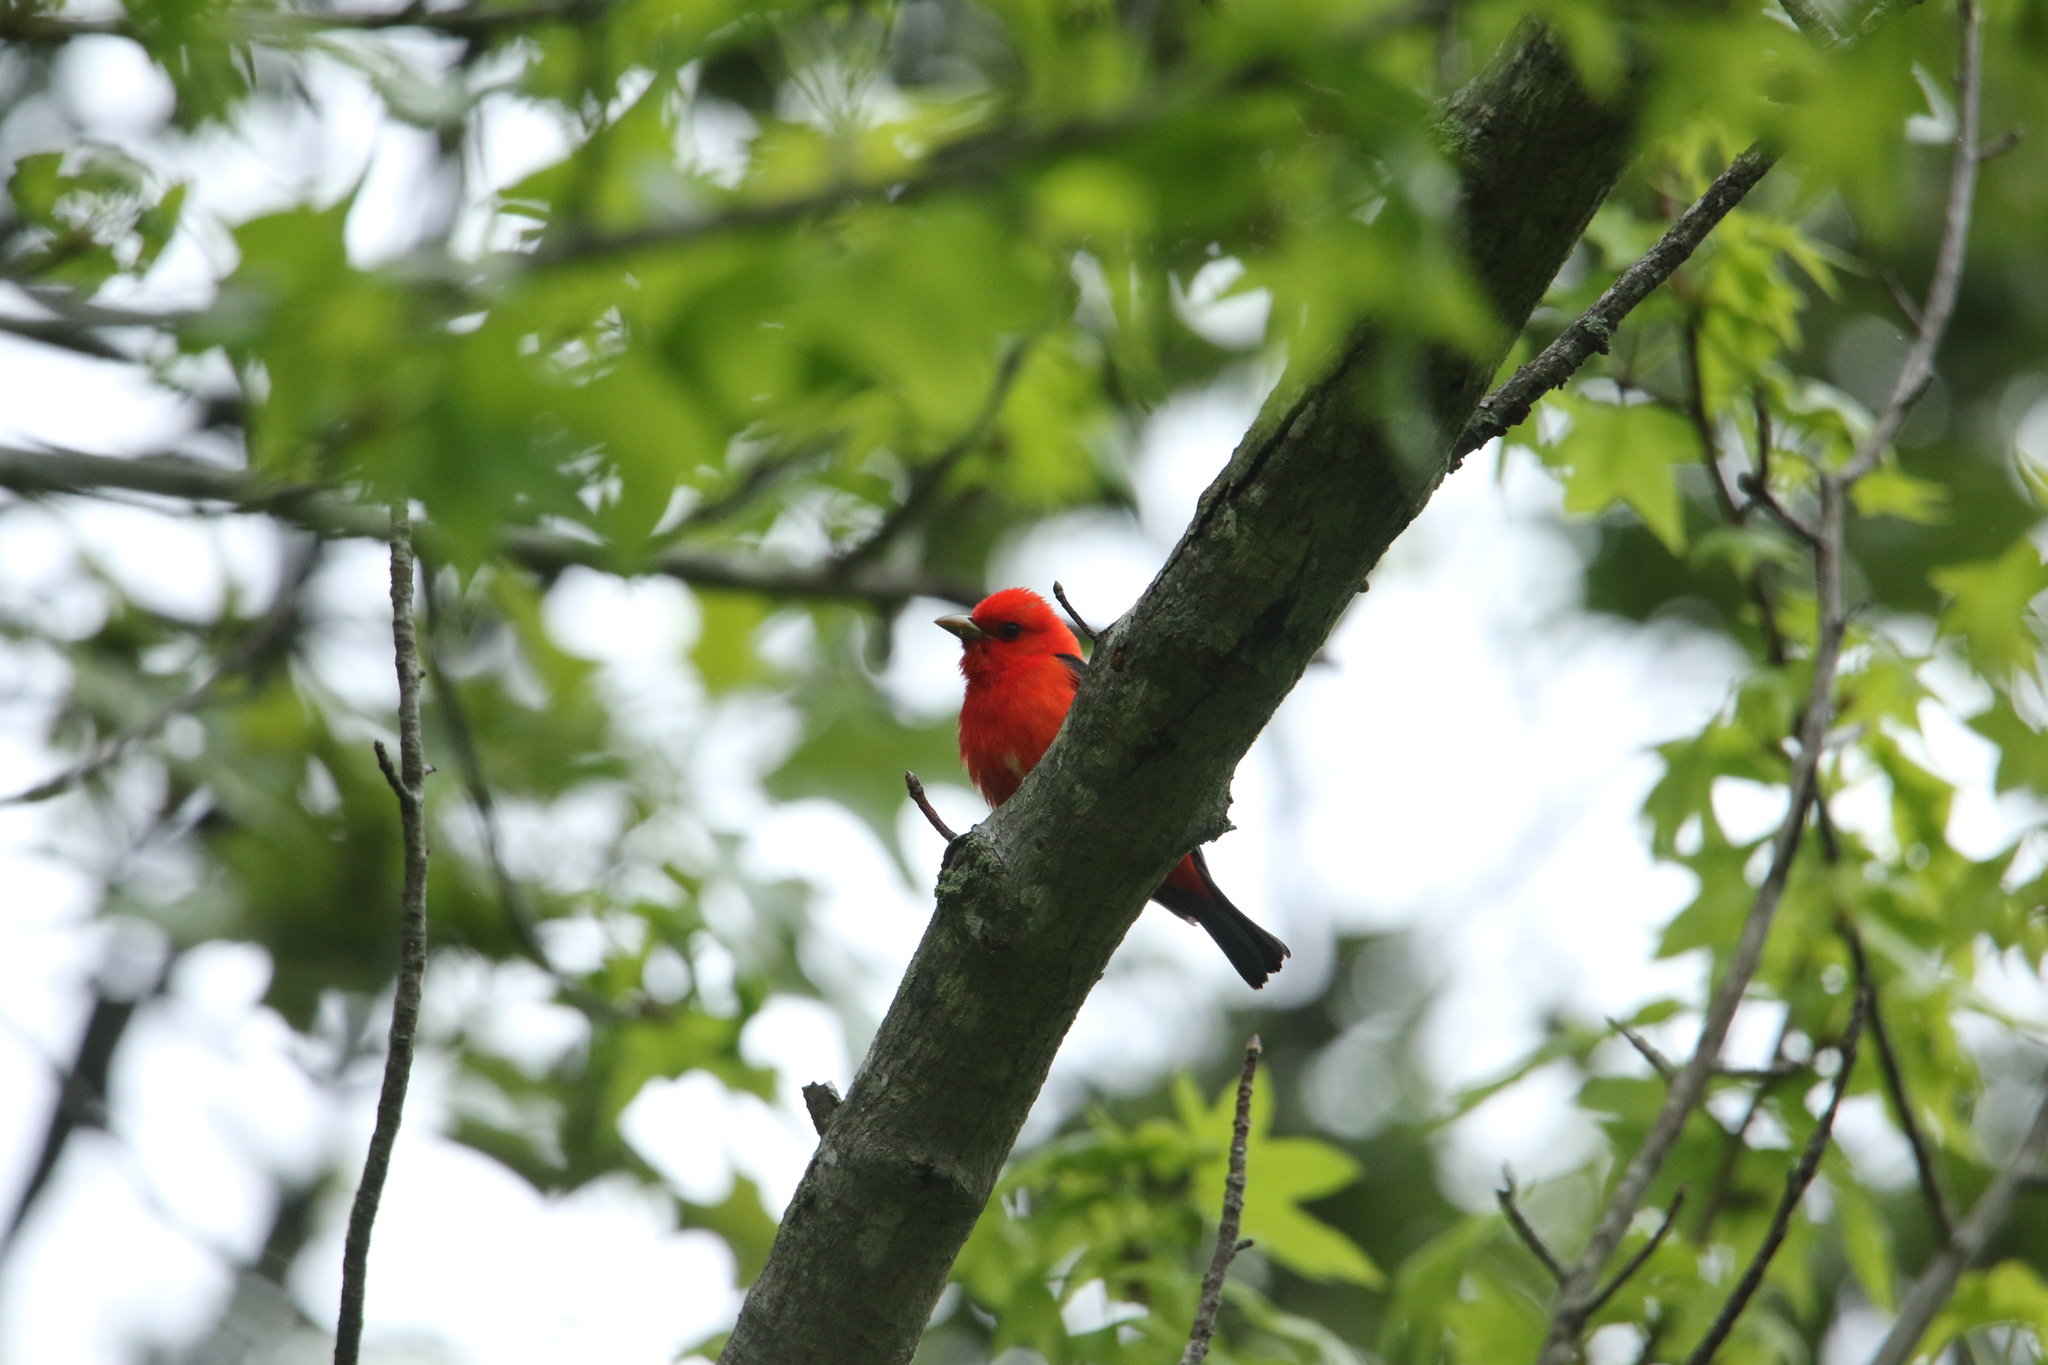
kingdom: Animalia
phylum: Chordata
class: Aves
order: Passeriformes
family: Cardinalidae
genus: Piranga
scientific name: Piranga olivacea
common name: Scarlet tanager
